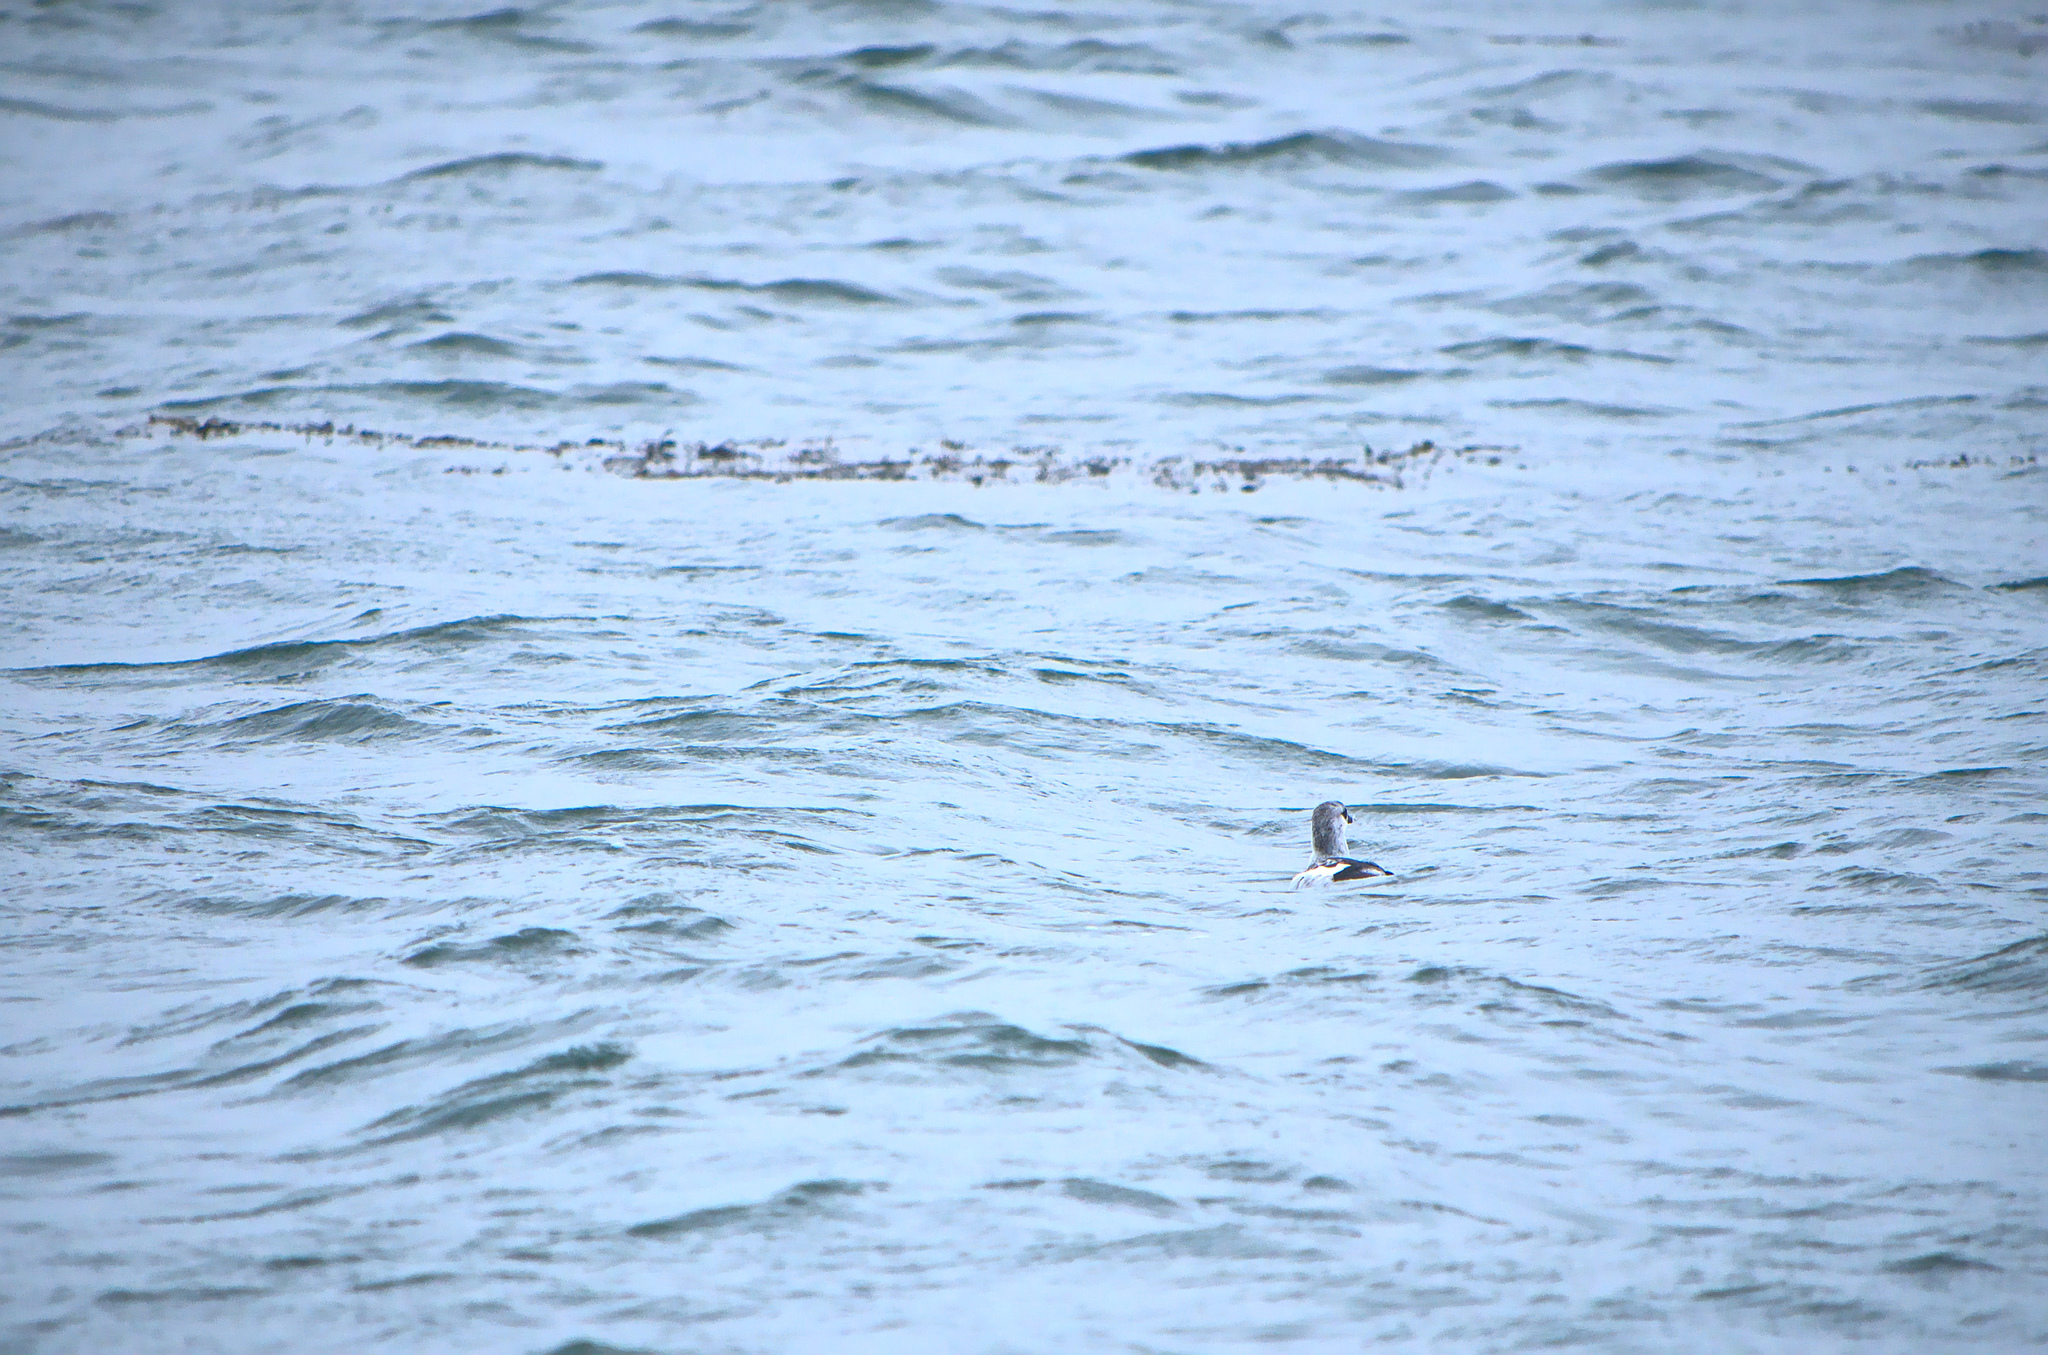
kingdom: Animalia
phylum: Chordata
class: Aves
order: Charadriiformes
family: Alcidae
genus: Cepphus
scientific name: Cepphus grylle
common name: Black guillemot
